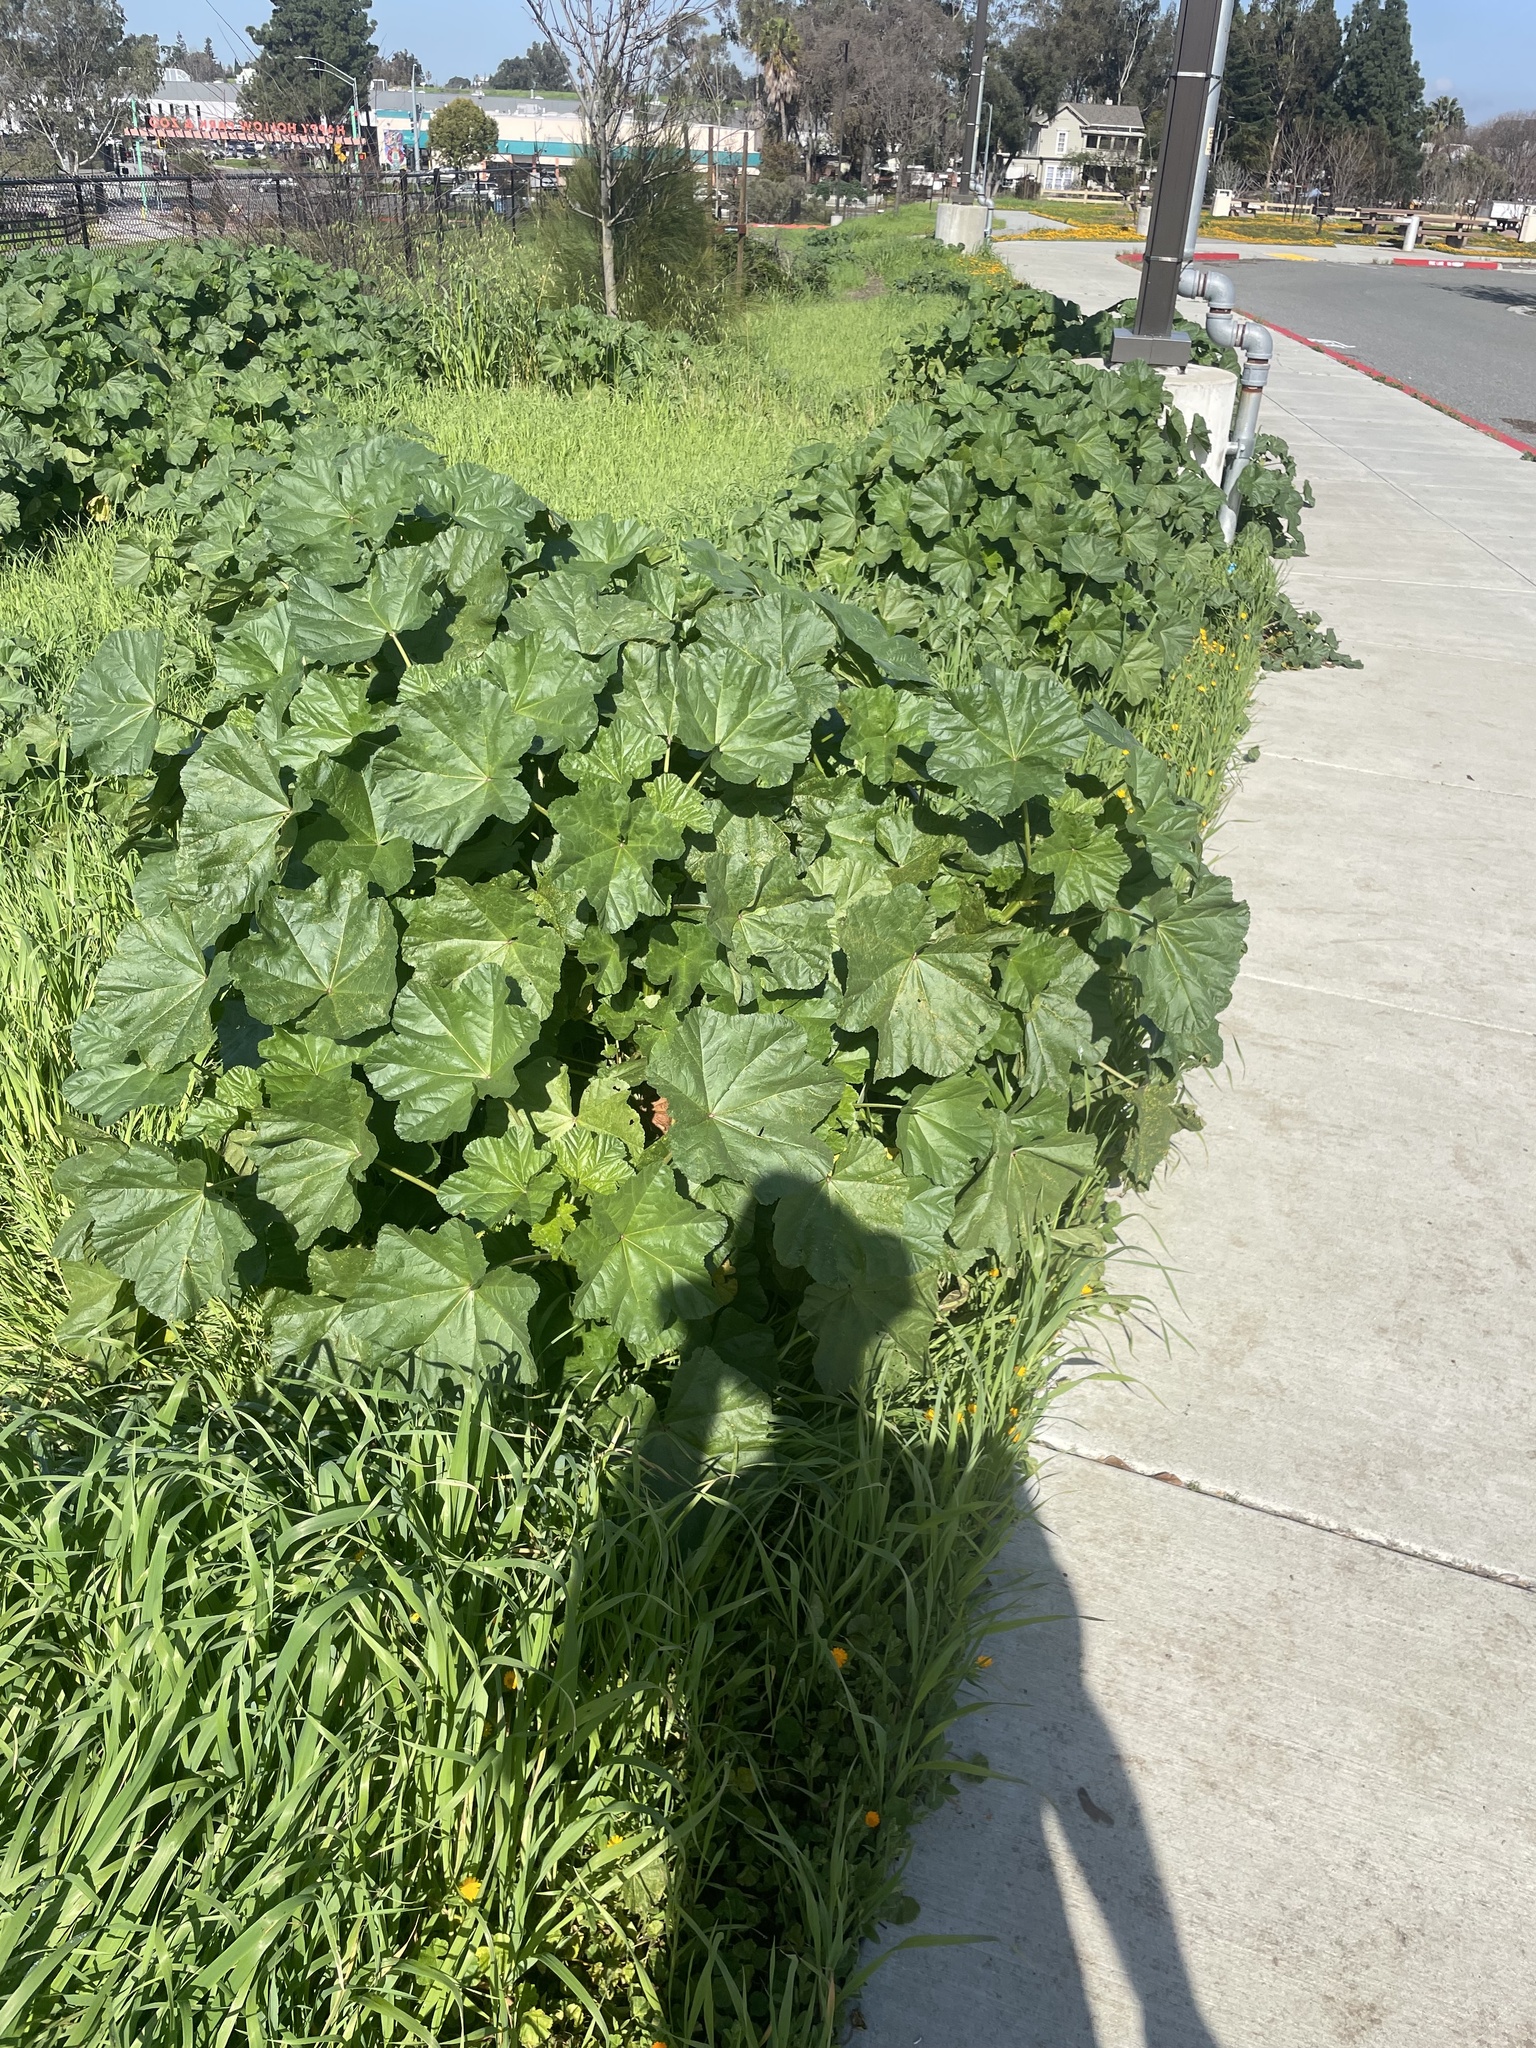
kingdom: Plantae
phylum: Tracheophyta
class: Magnoliopsida
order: Malvales
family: Malvaceae
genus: Malva
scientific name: Malva
